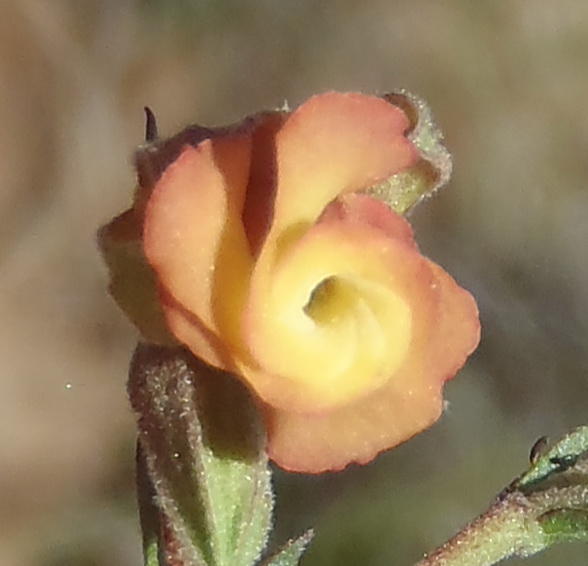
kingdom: Plantae
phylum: Tracheophyta
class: Magnoliopsida
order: Malvales
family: Malvaceae
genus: Hermannia
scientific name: Hermannia flammula
